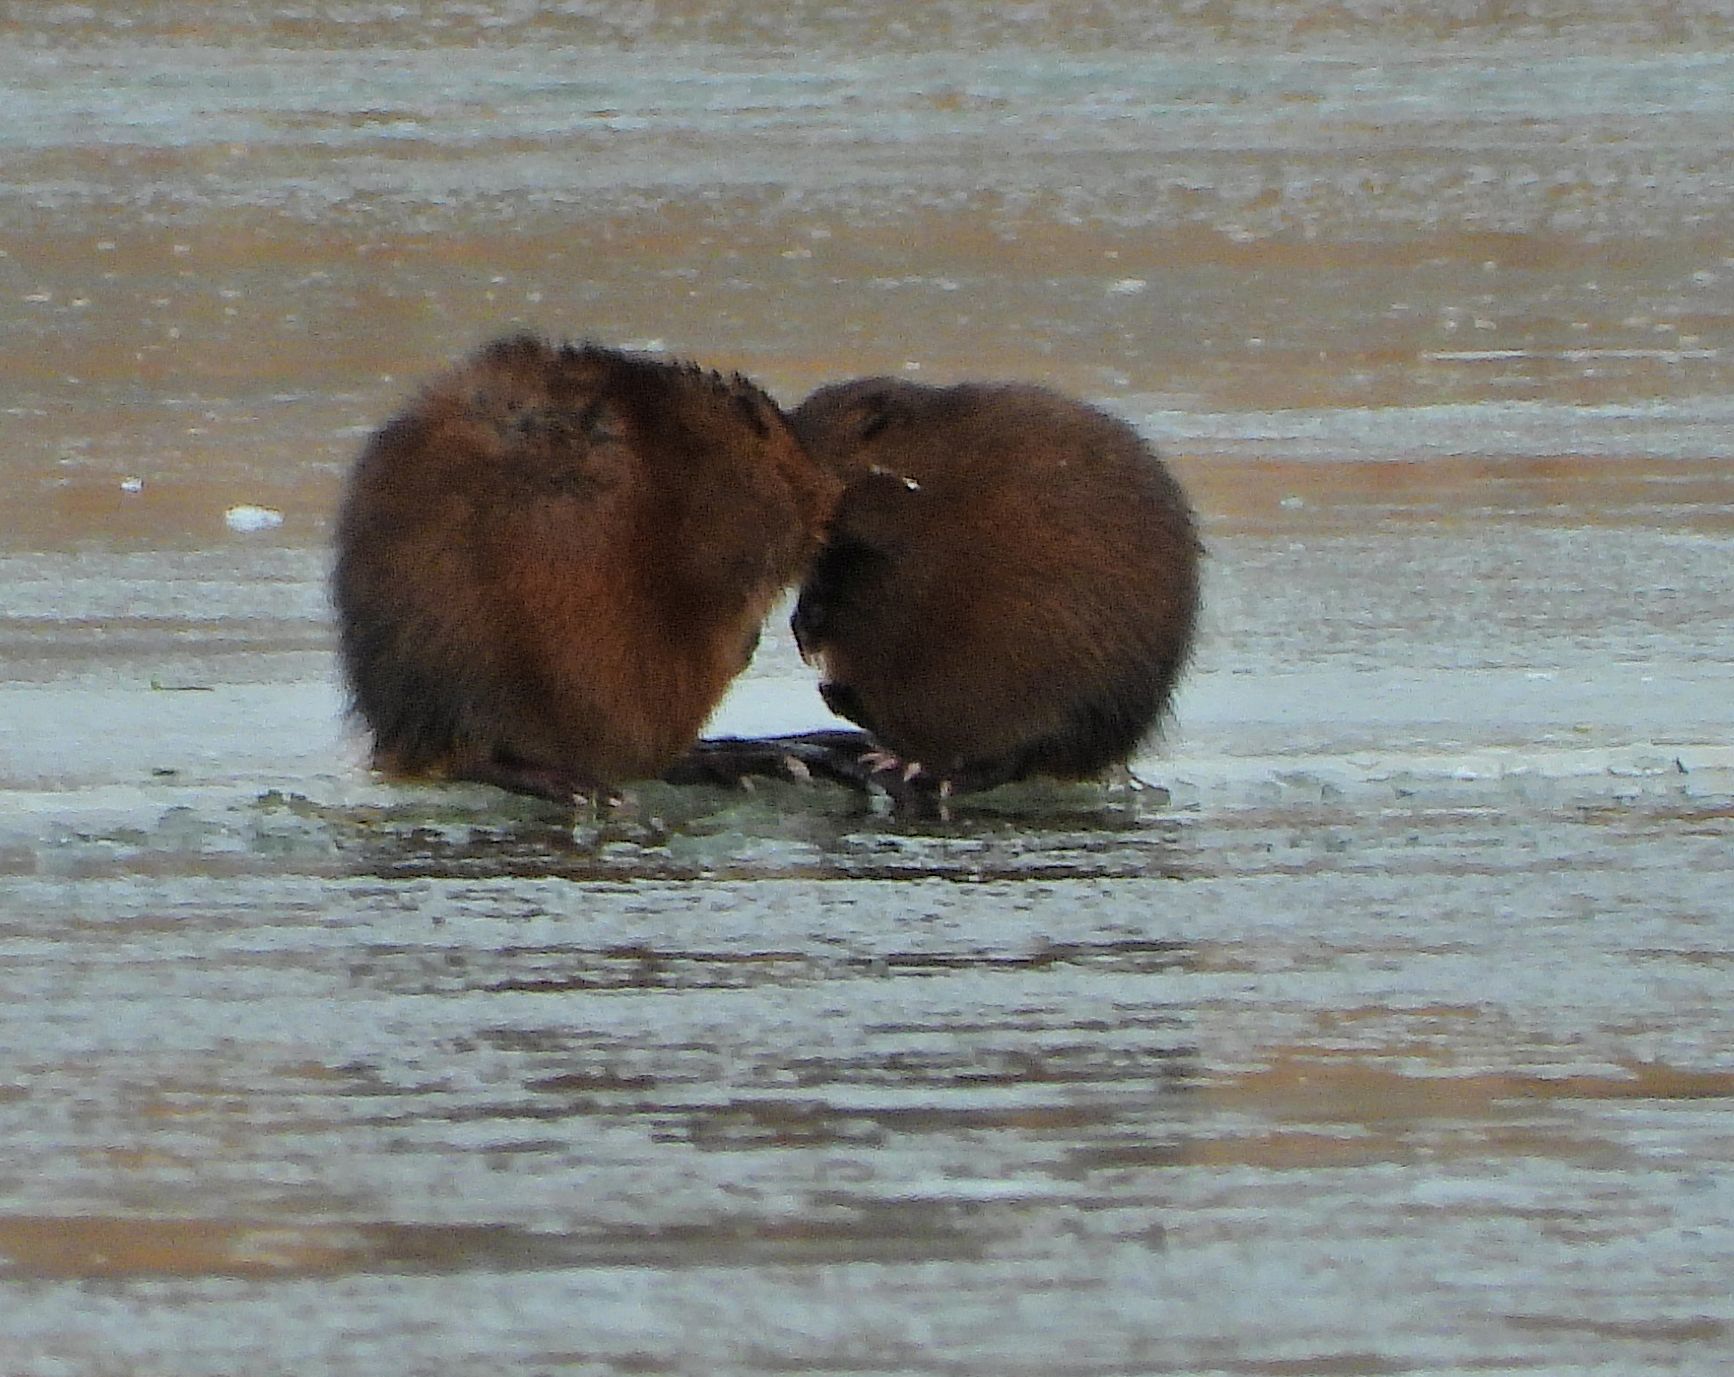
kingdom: Animalia
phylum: Chordata
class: Mammalia
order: Rodentia
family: Cricetidae
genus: Ondatra
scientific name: Ondatra zibethicus
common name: Muskrat
